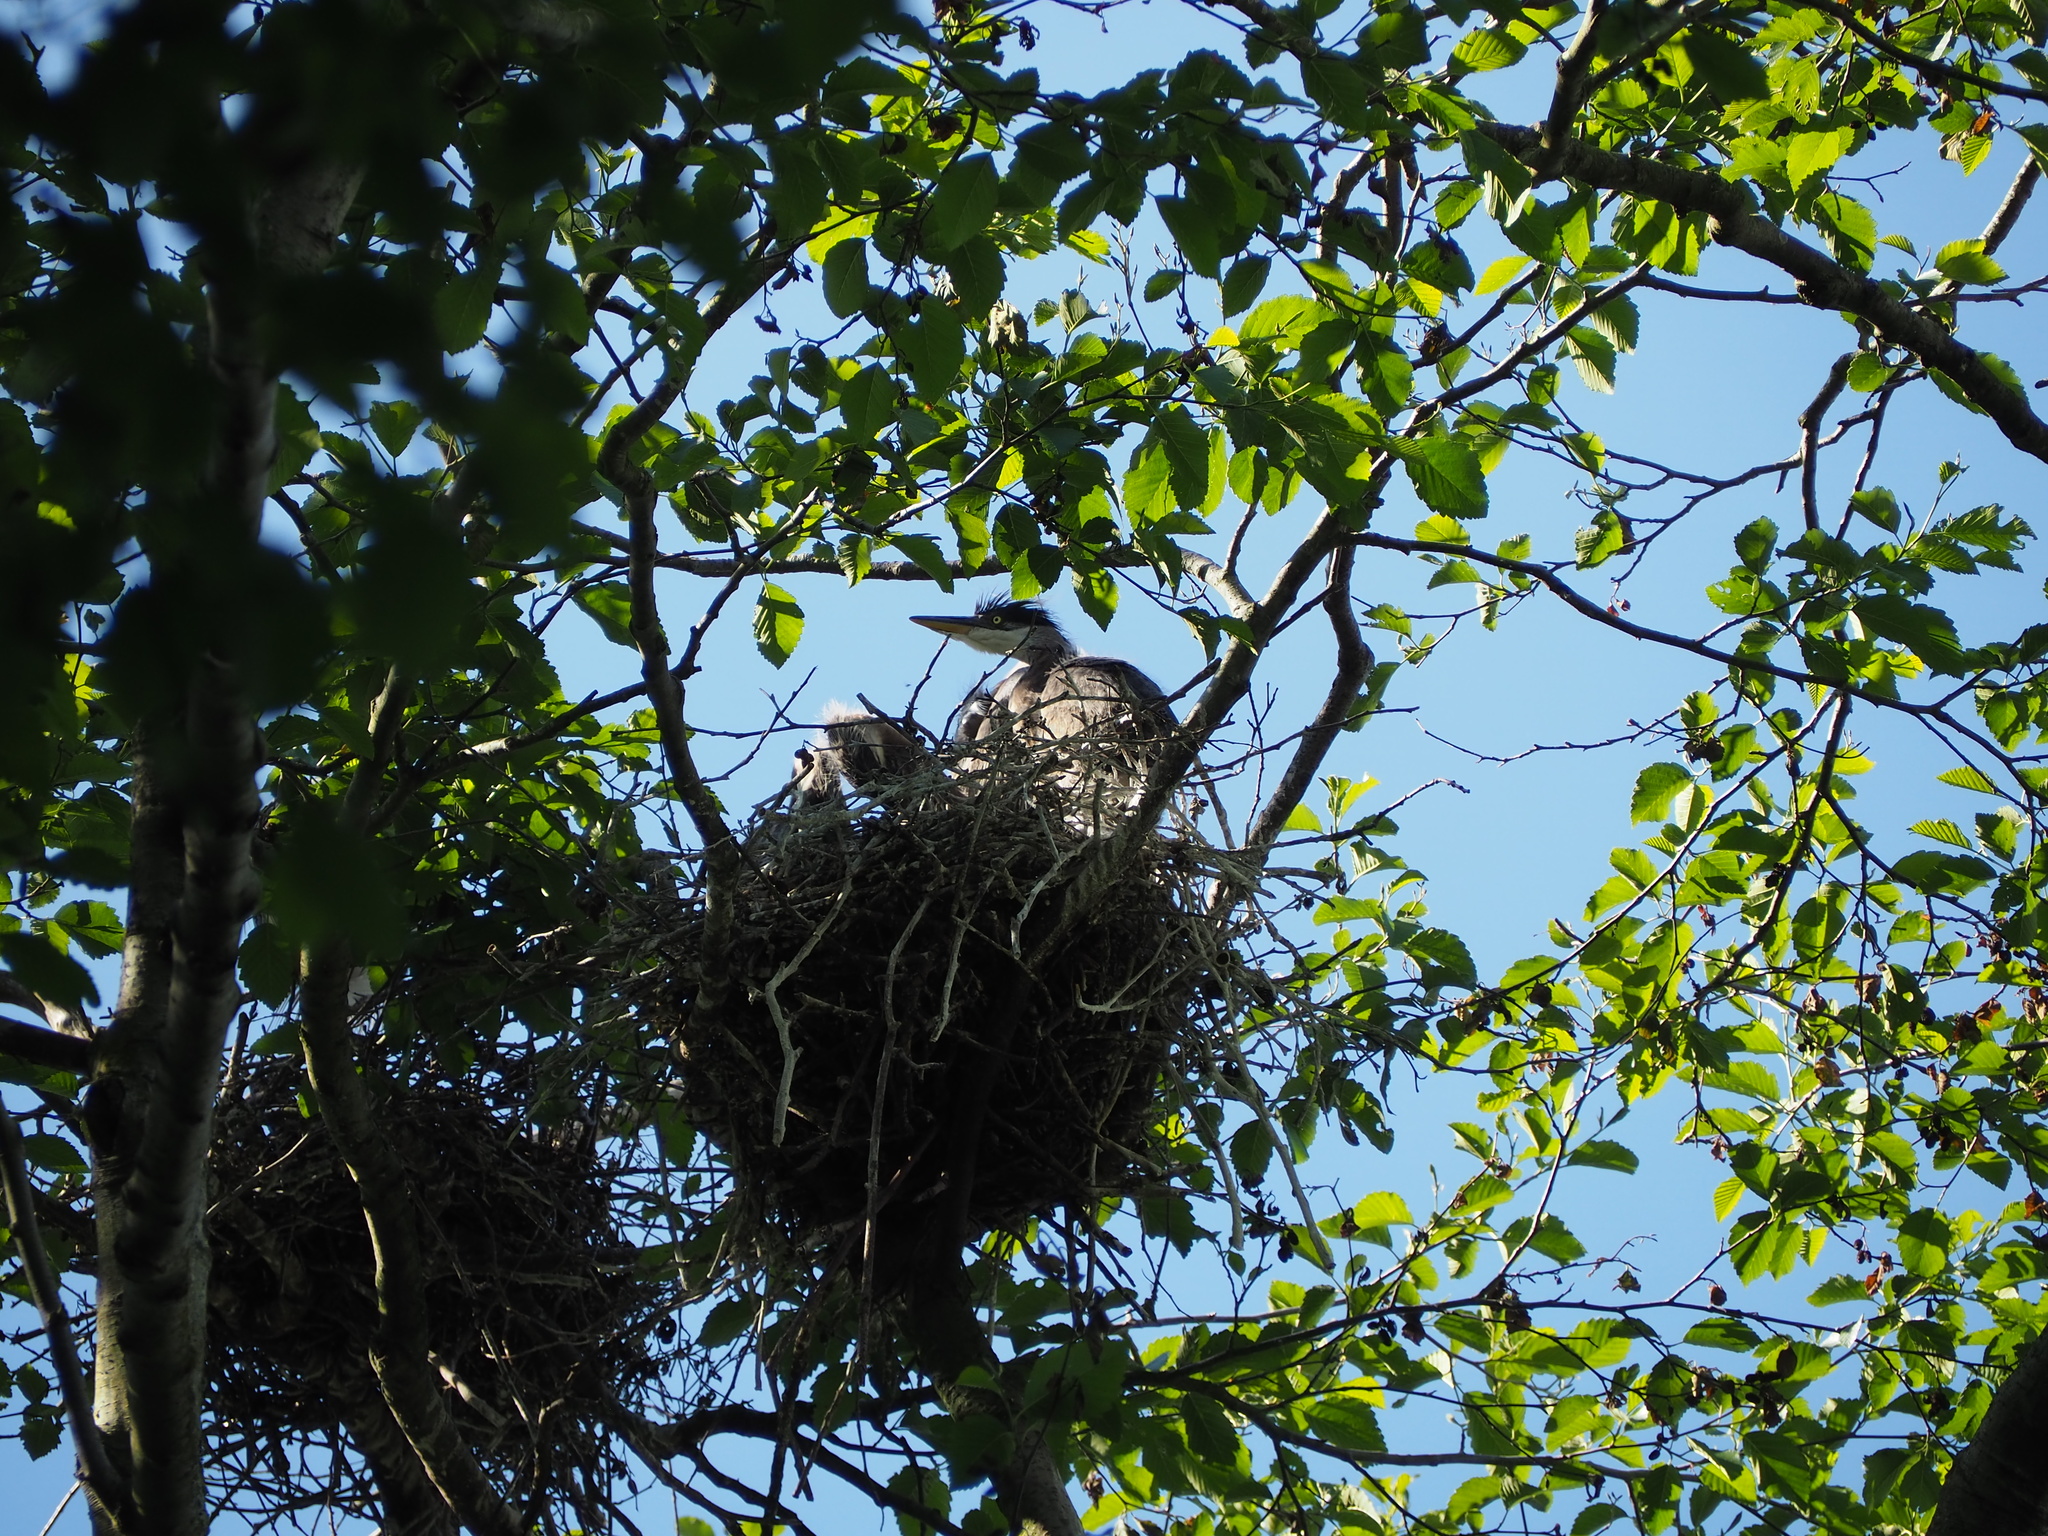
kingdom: Animalia
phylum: Chordata
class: Aves
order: Pelecaniformes
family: Ardeidae
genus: Ardea
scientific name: Ardea herodias
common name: Great blue heron
